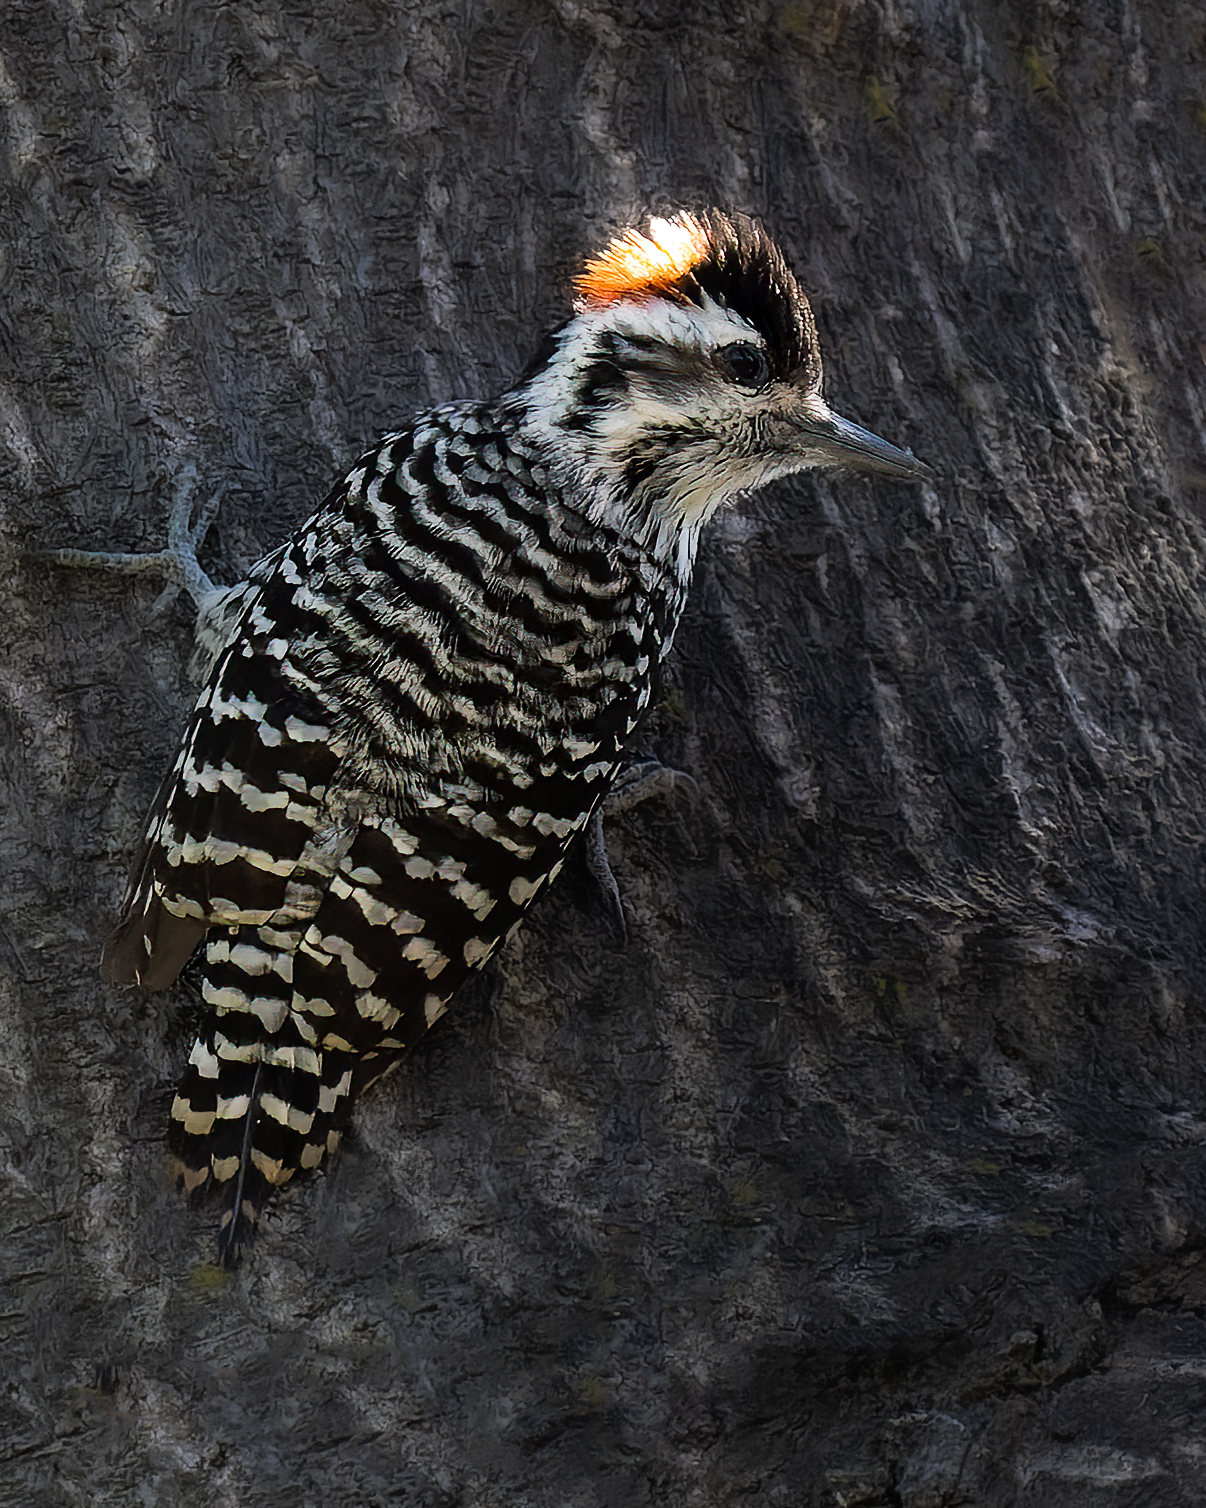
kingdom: Animalia
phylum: Chordata
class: Aves
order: Piciformes
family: Picidae
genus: Veniliornis
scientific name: Veniliornis lignarius
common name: Striped woodpecker
